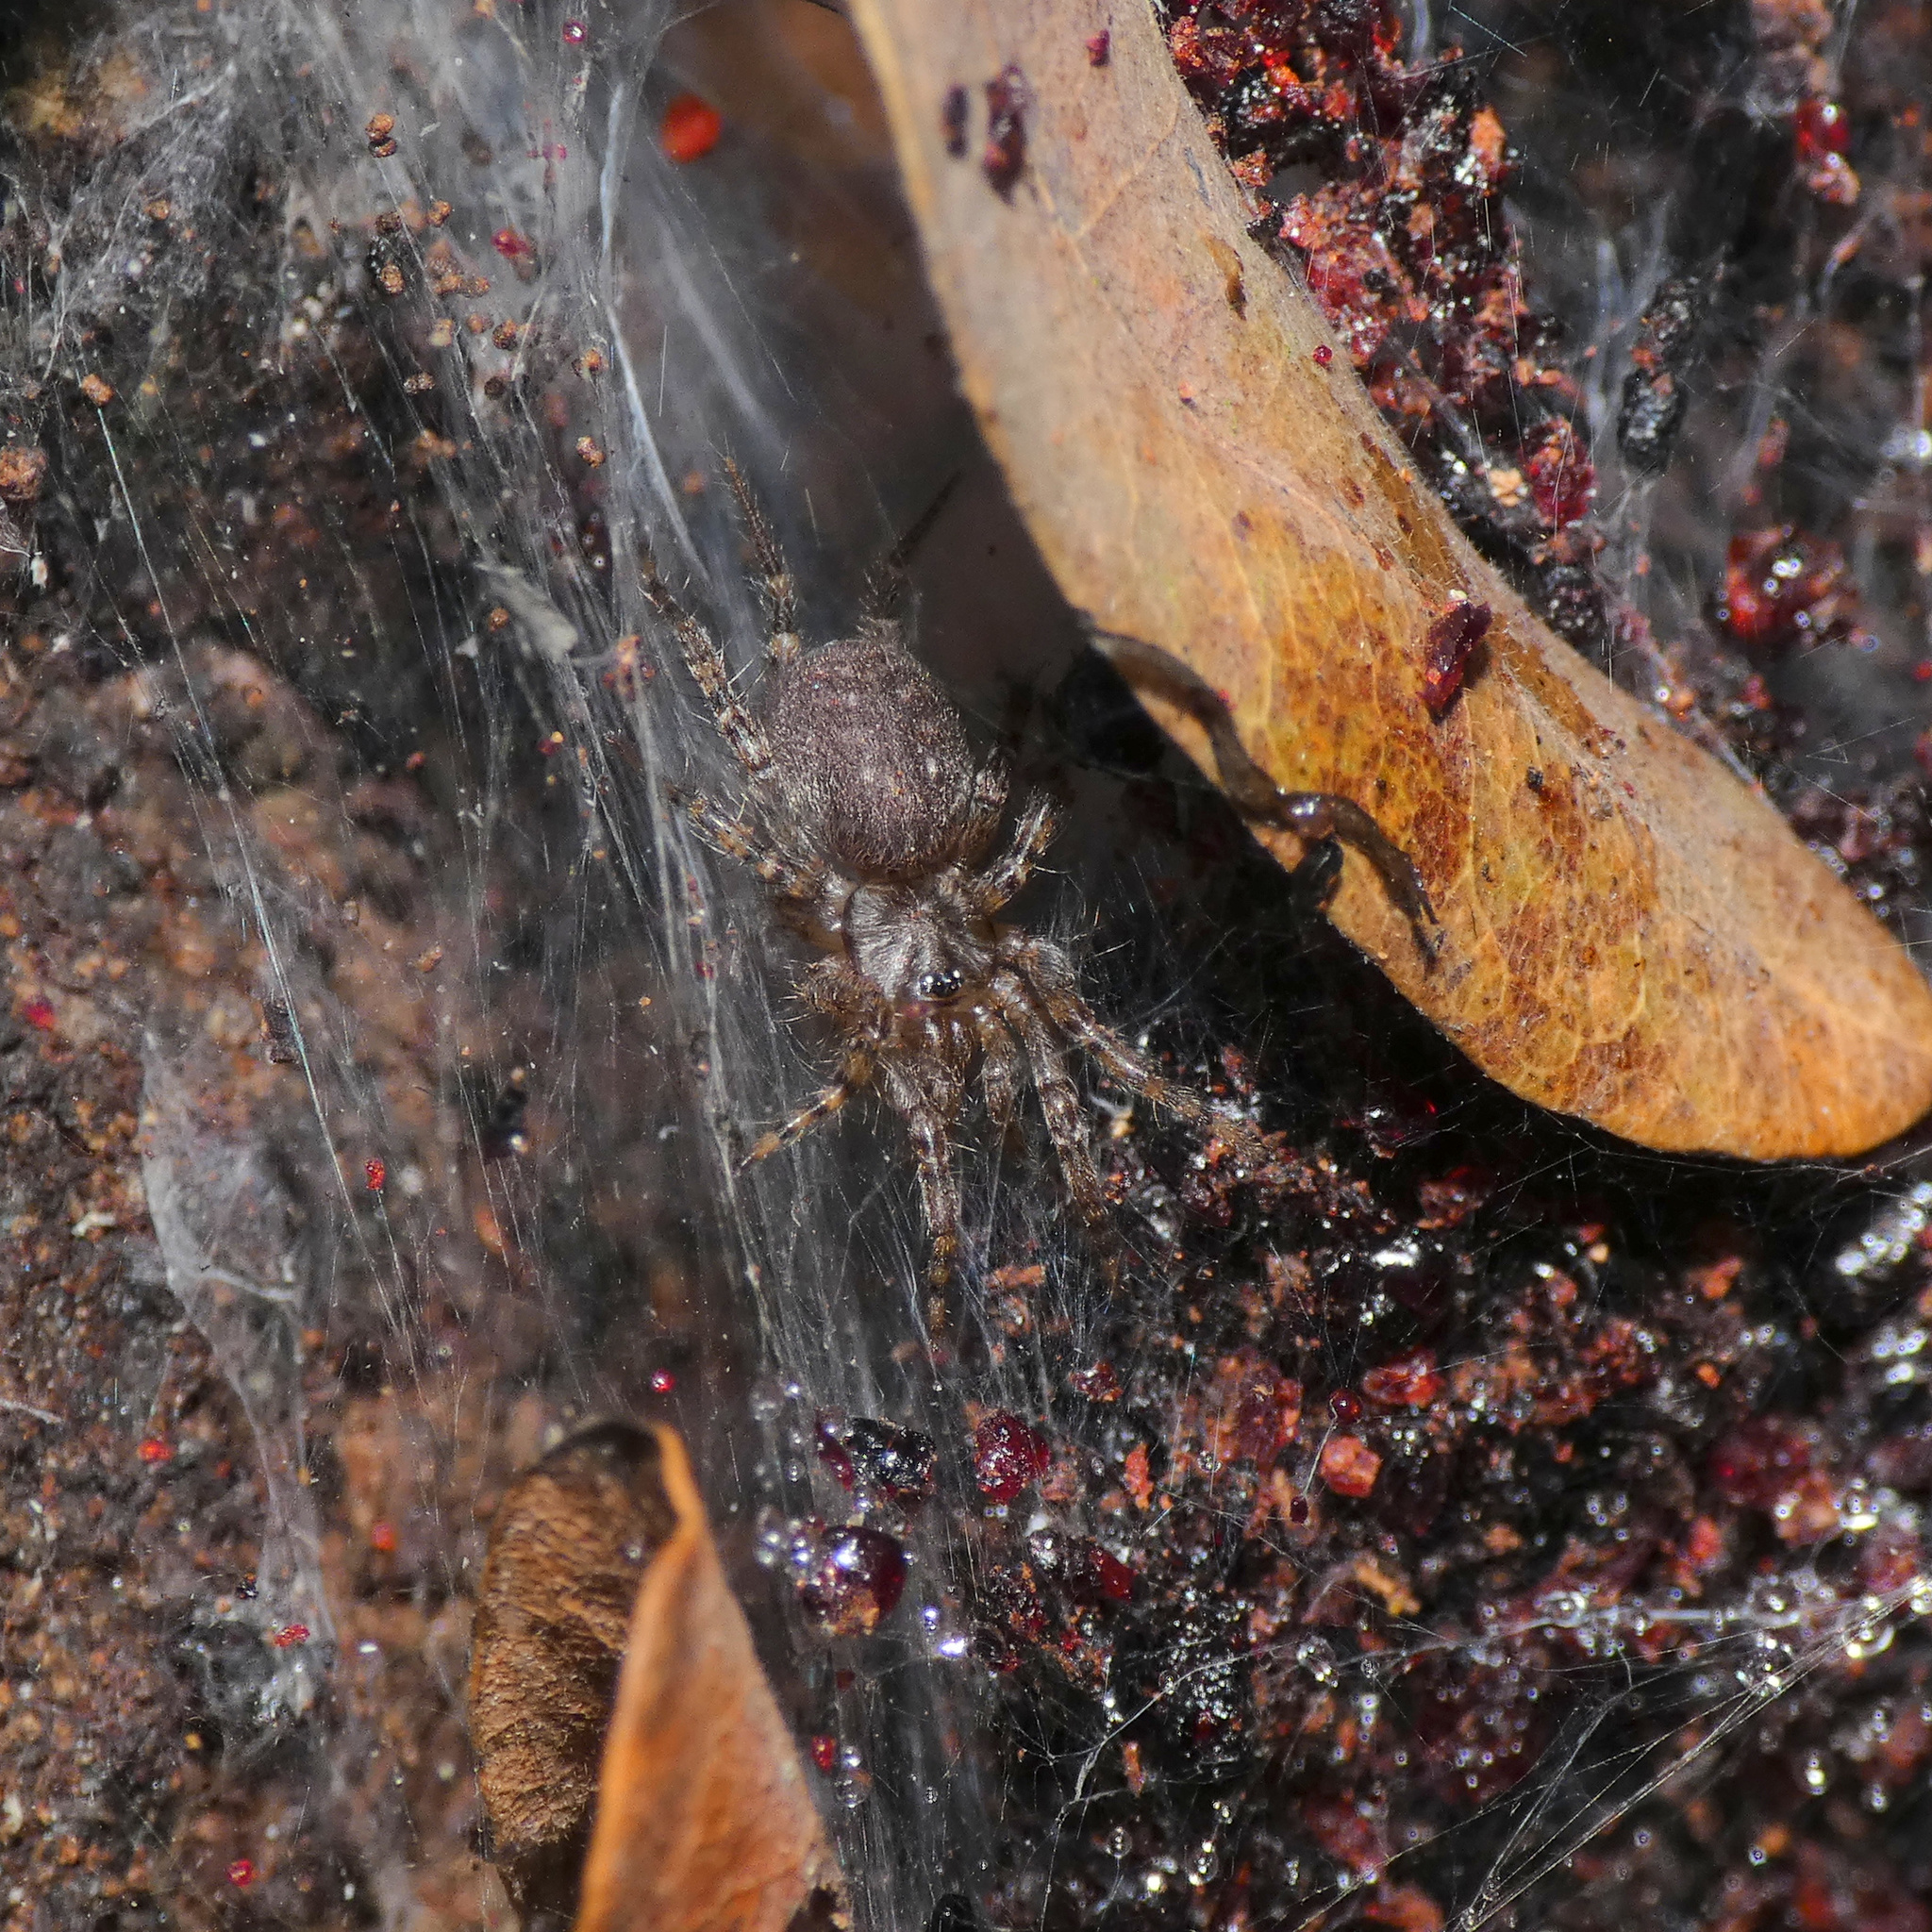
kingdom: Animalia
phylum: Arthropoda
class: Arachnida
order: Araneae
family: Ischnothelidae
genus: Thelechoris
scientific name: Thelechoris striatipes
